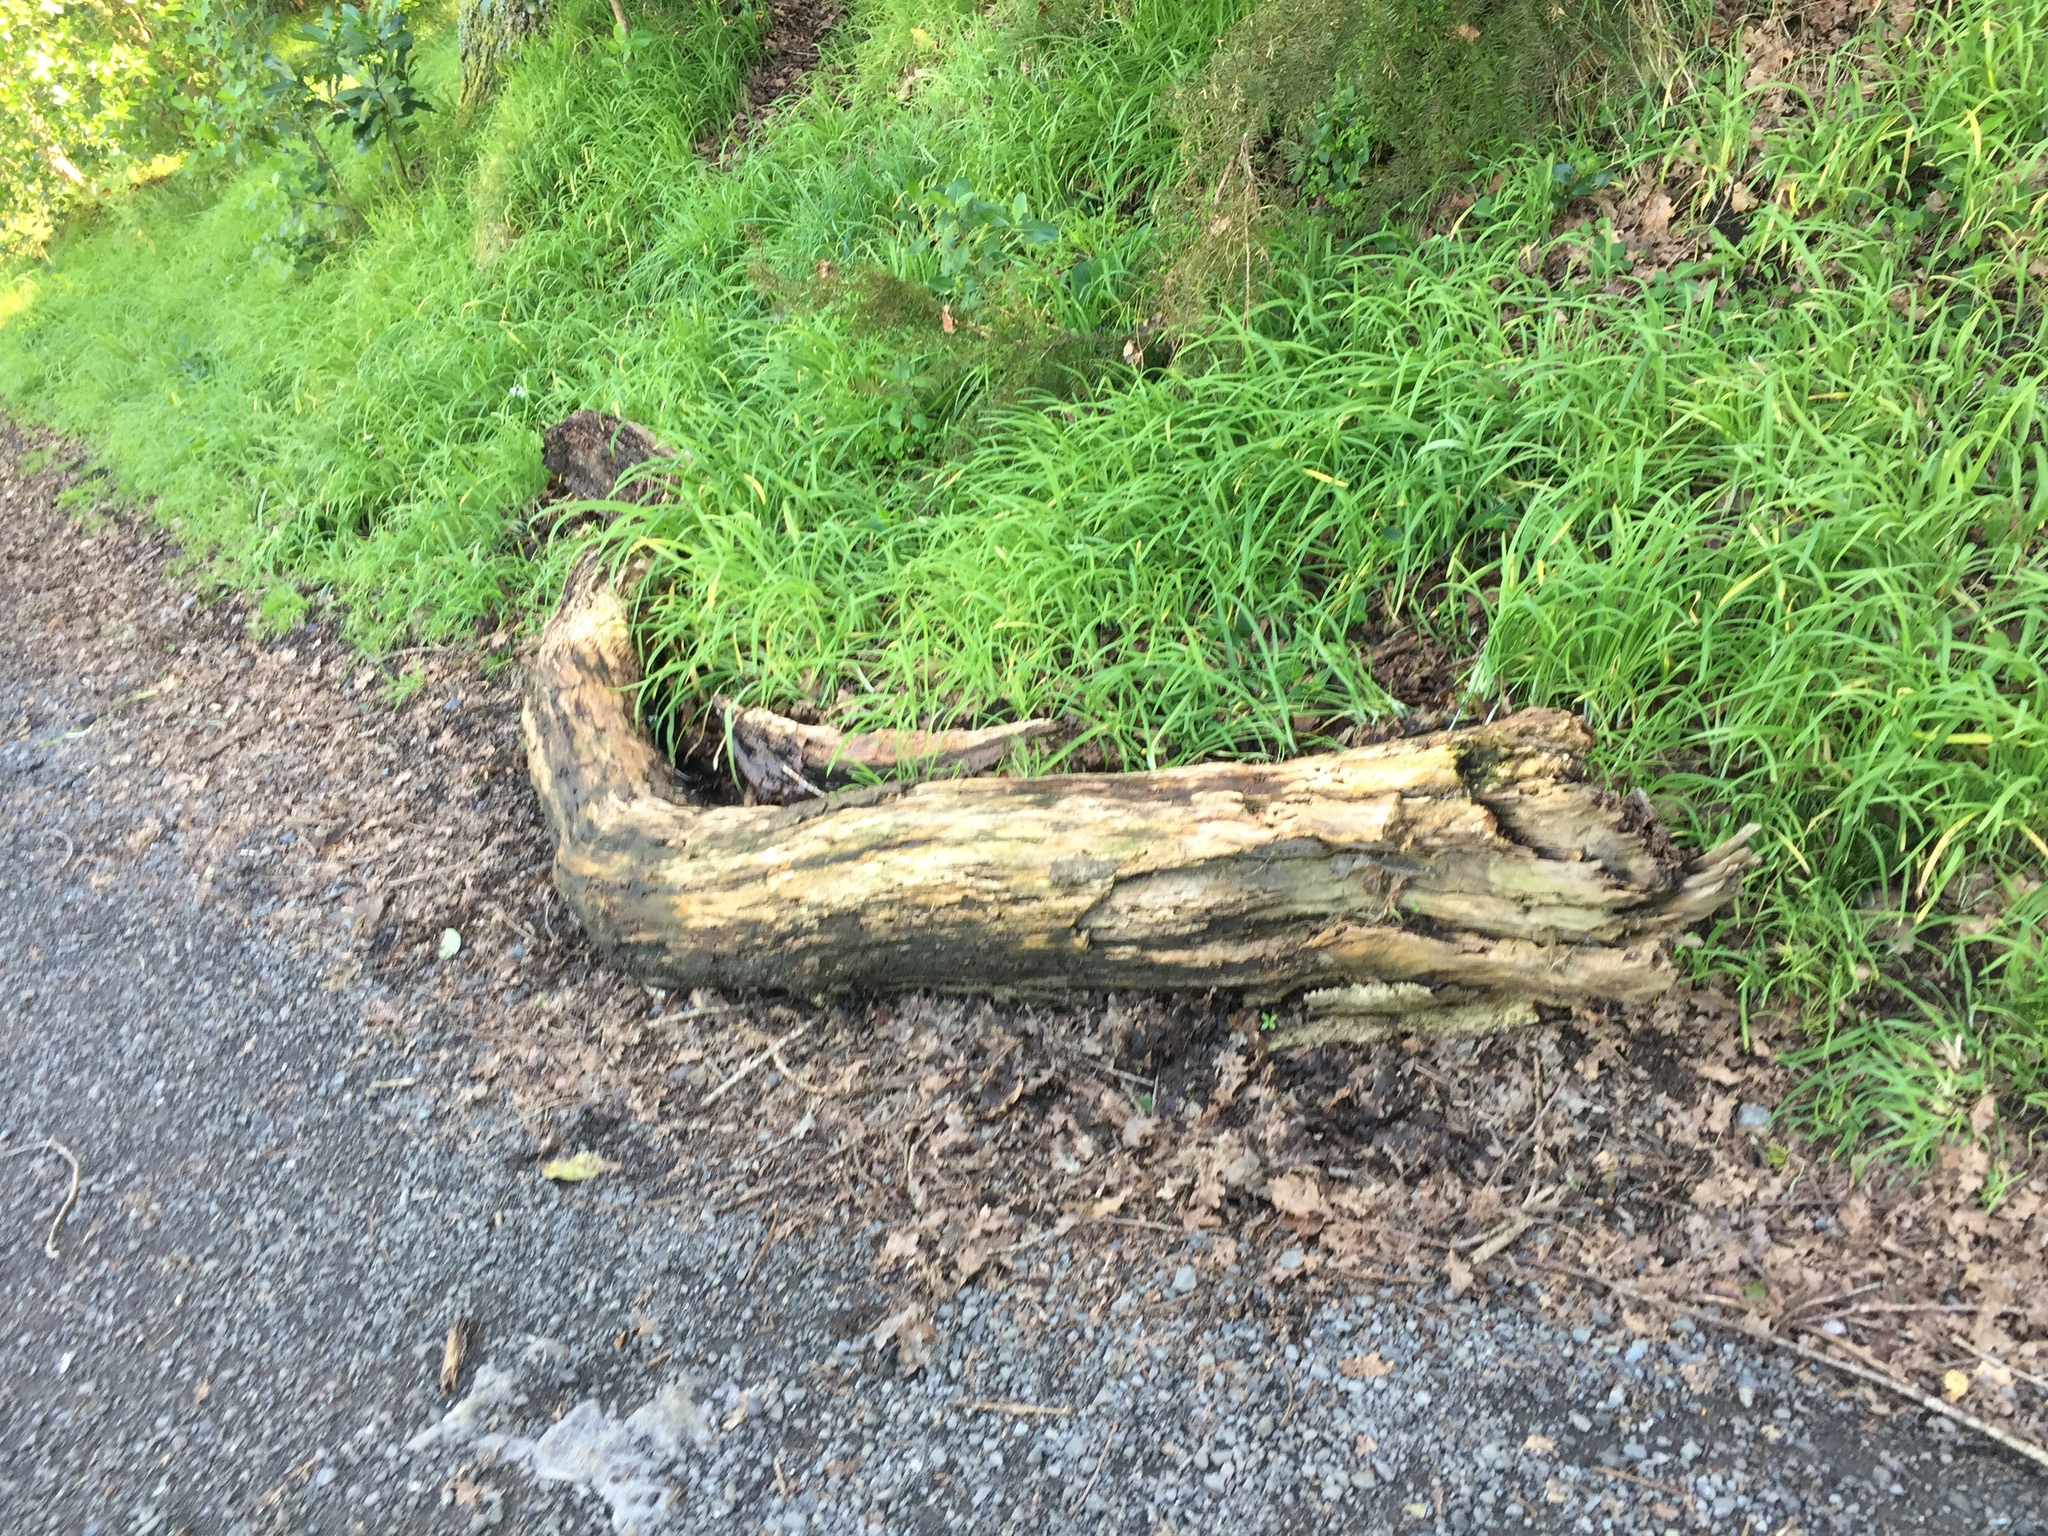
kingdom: Animalia
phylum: Arthropoda
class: Insecta
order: Coleoptera
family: Lucanidae
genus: Ryssonotus
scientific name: Ryssonotus nebulosus
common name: Brown stag beetle
